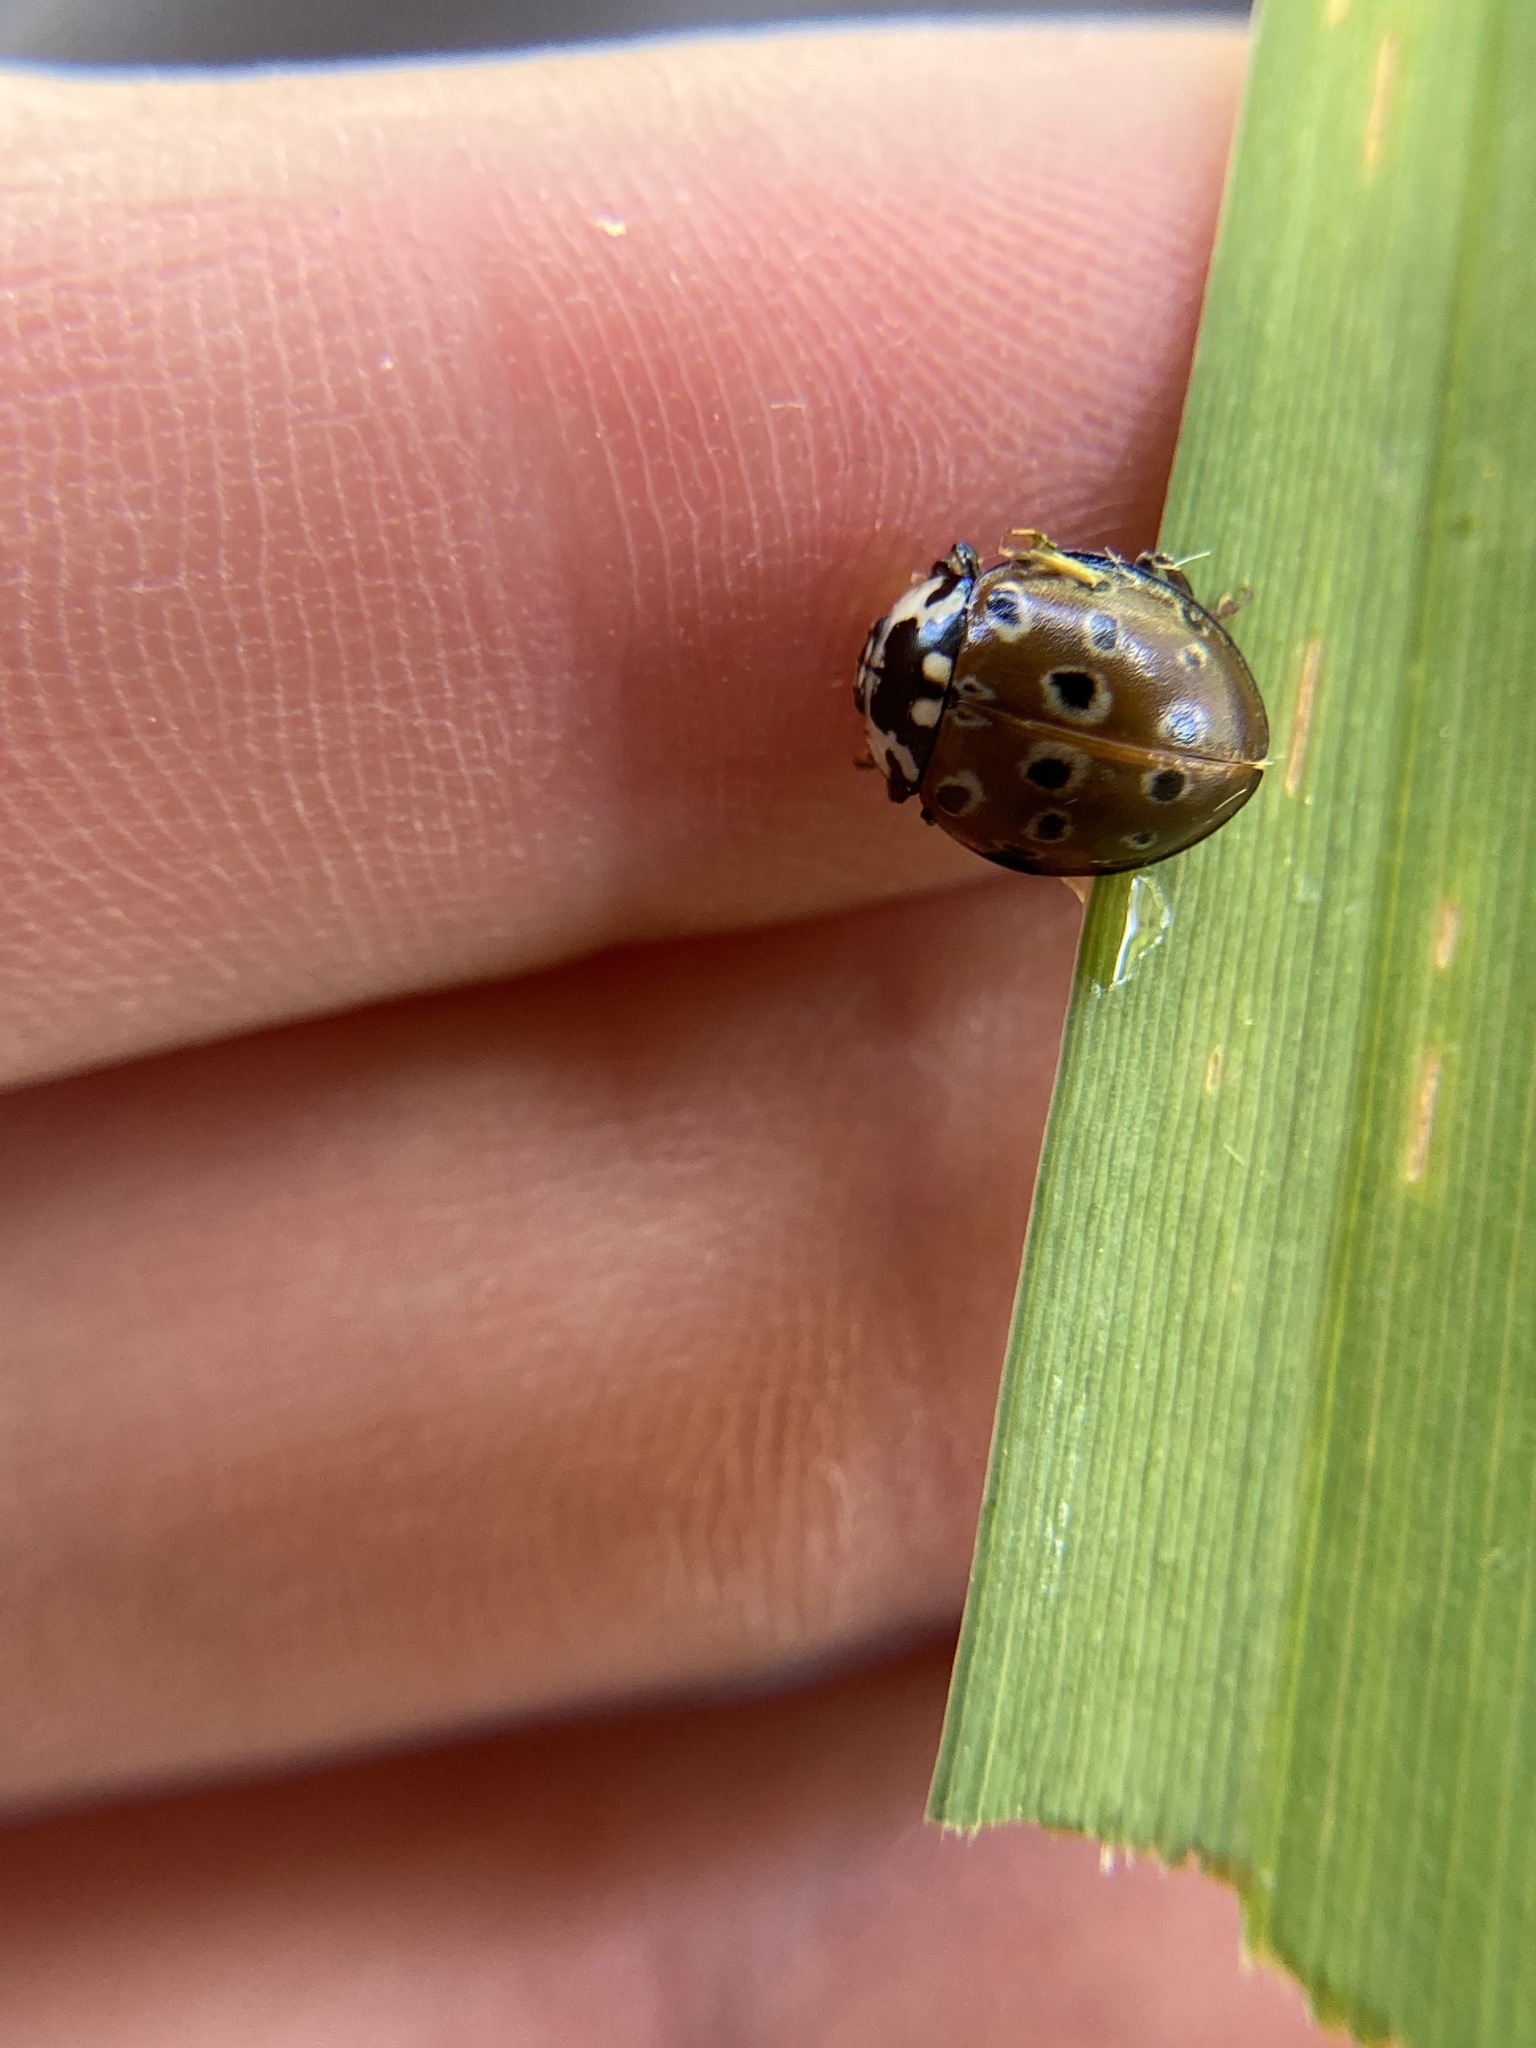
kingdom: Animalia
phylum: Arthropoda
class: Insecta
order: Coleoptera
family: Coccinellidae
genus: Anatis
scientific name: Anatis mali
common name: Eye-spotted lady beetle
